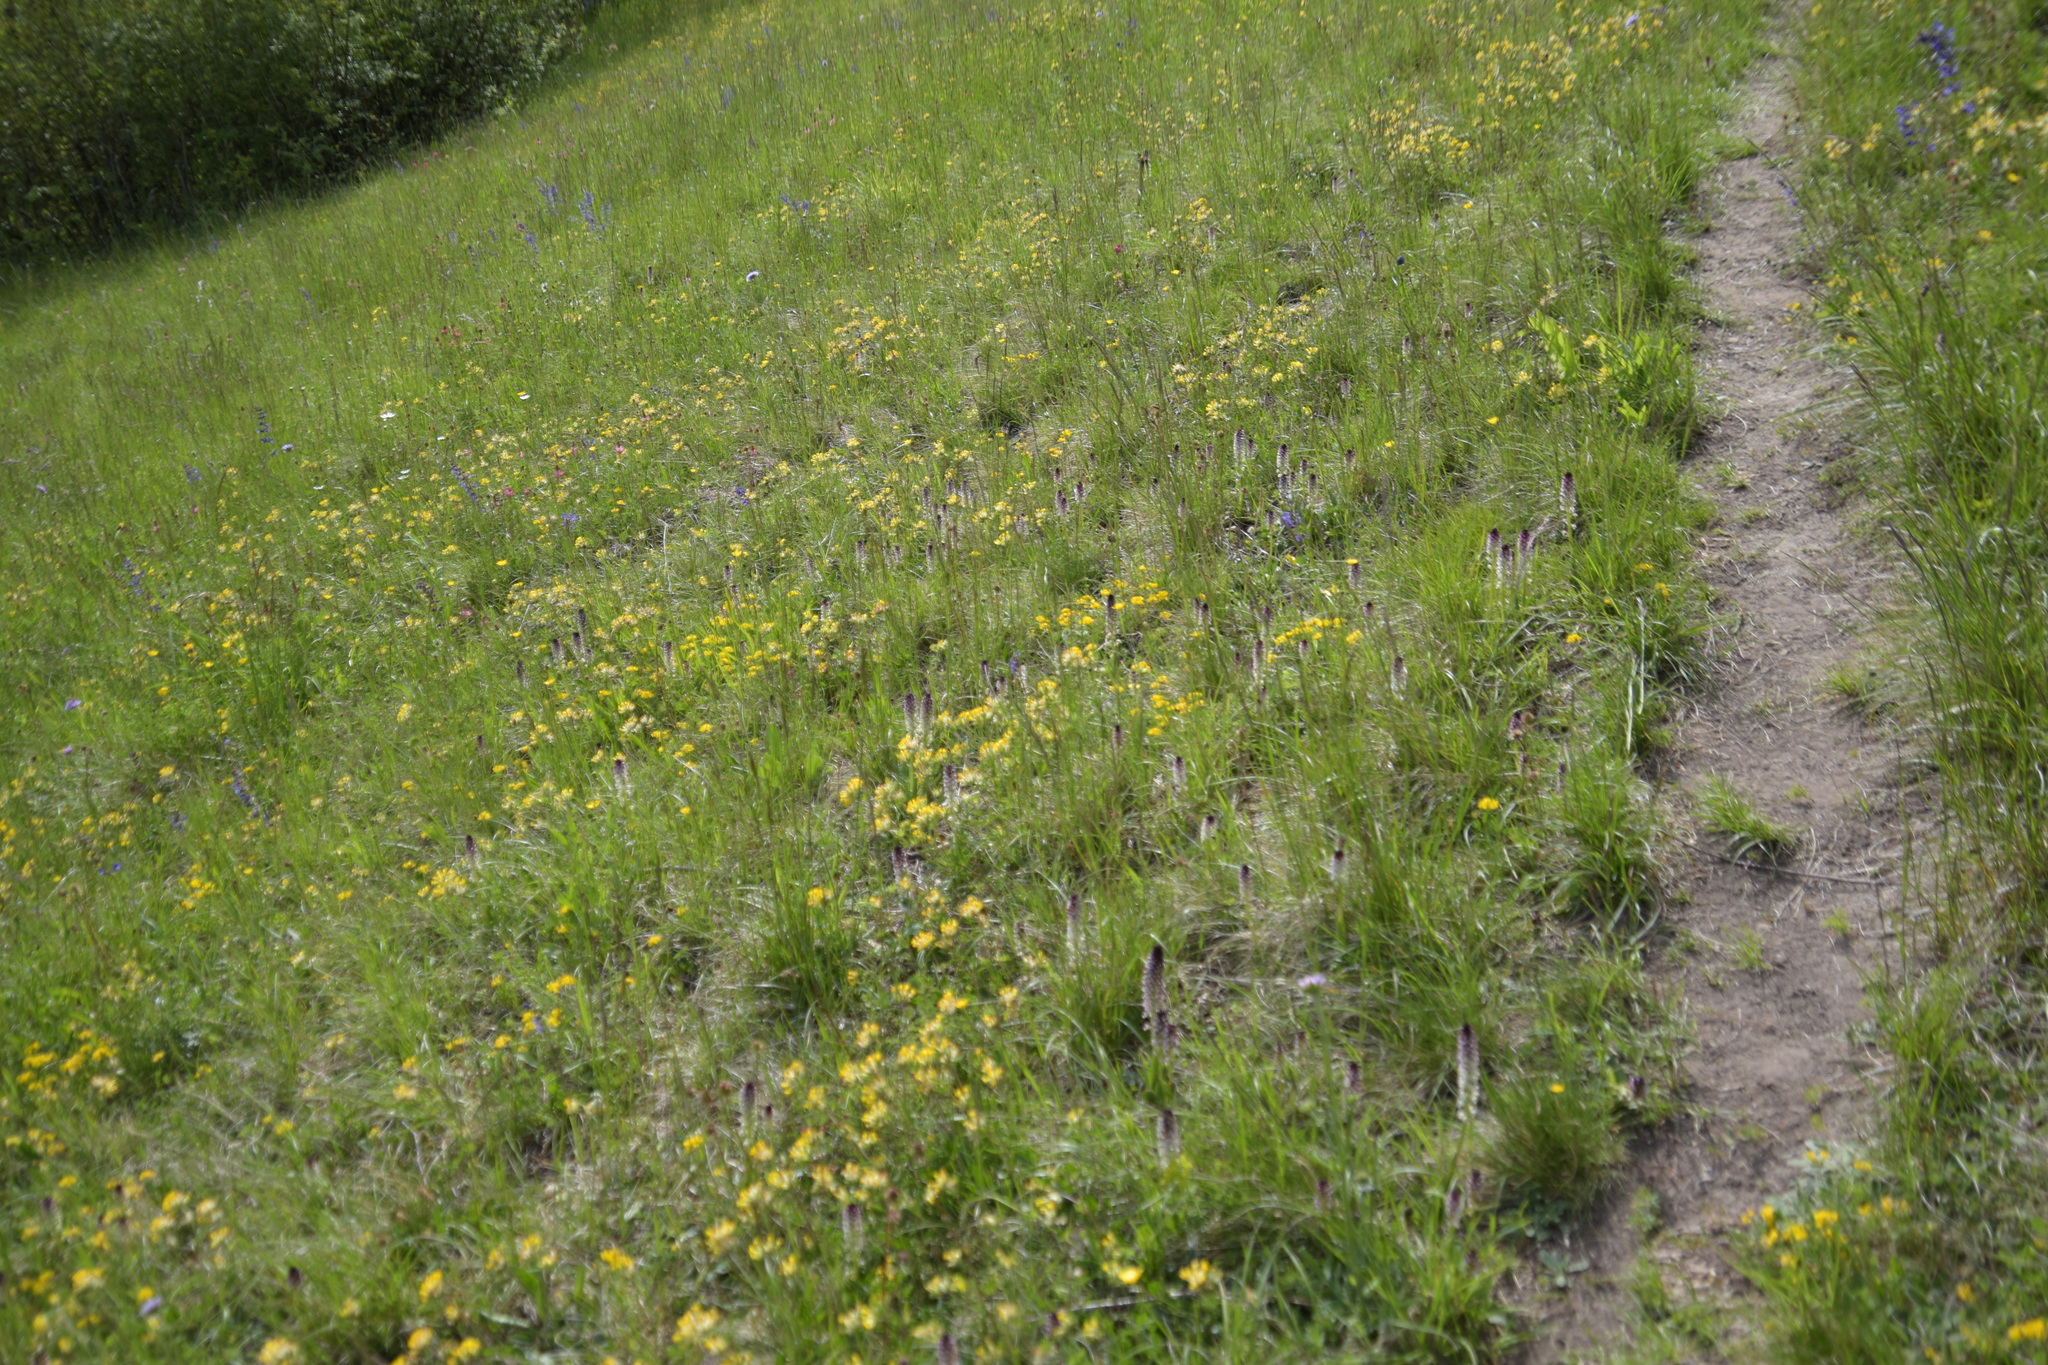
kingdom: Plantae
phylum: Tracheophyta
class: Liliopsida
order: Asparagales
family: Orchidaceae
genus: Neotinea
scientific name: Neotinea ustulata
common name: Burnt orchid
